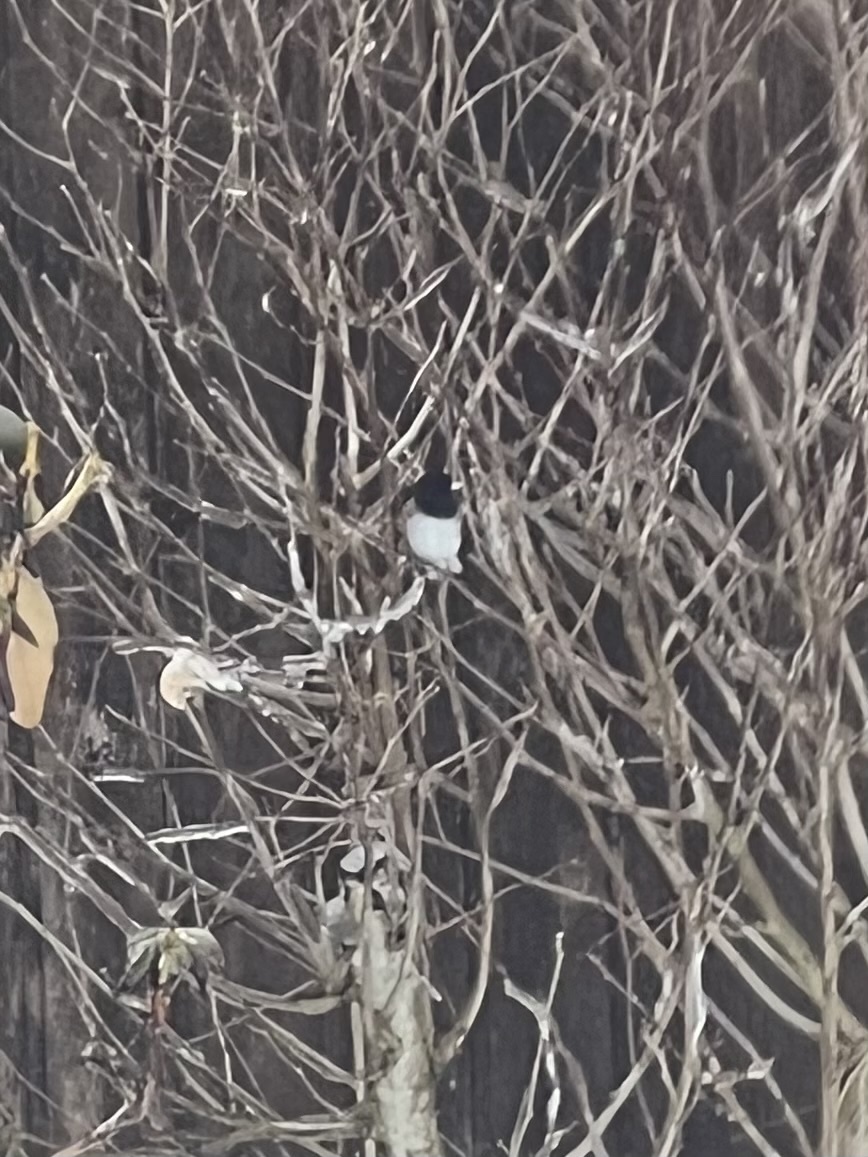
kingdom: Animalia
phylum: Chordata
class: Aves
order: Passeriformes
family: Passerellidae
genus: Junco
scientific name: Junco hyemalis
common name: Dark-eyed junco
